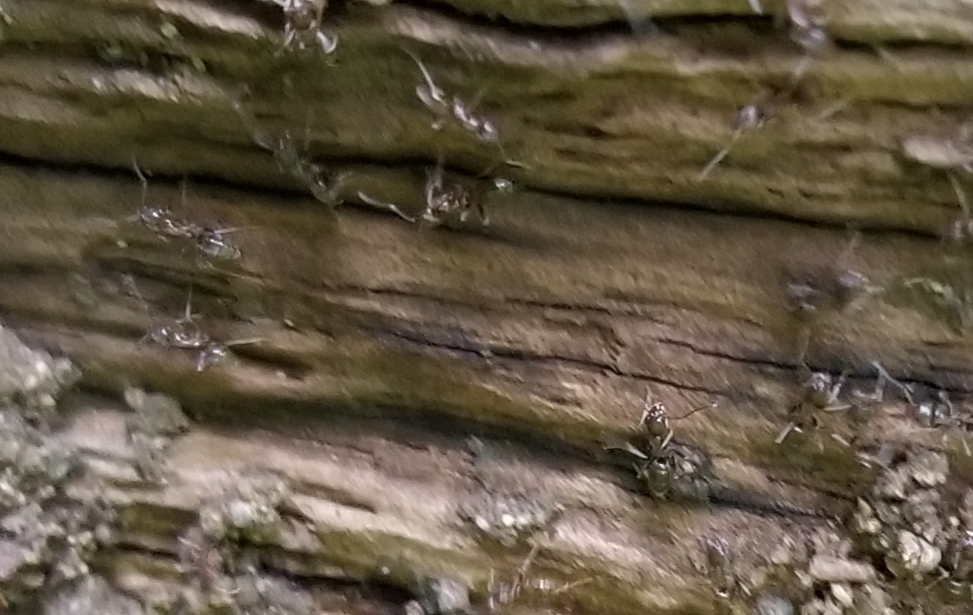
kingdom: Animalia
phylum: Arthropoda
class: Insecta
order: Hymenoptera
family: Formicidae
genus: Linepithema
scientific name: Linepithema humile
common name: Argentine ant
